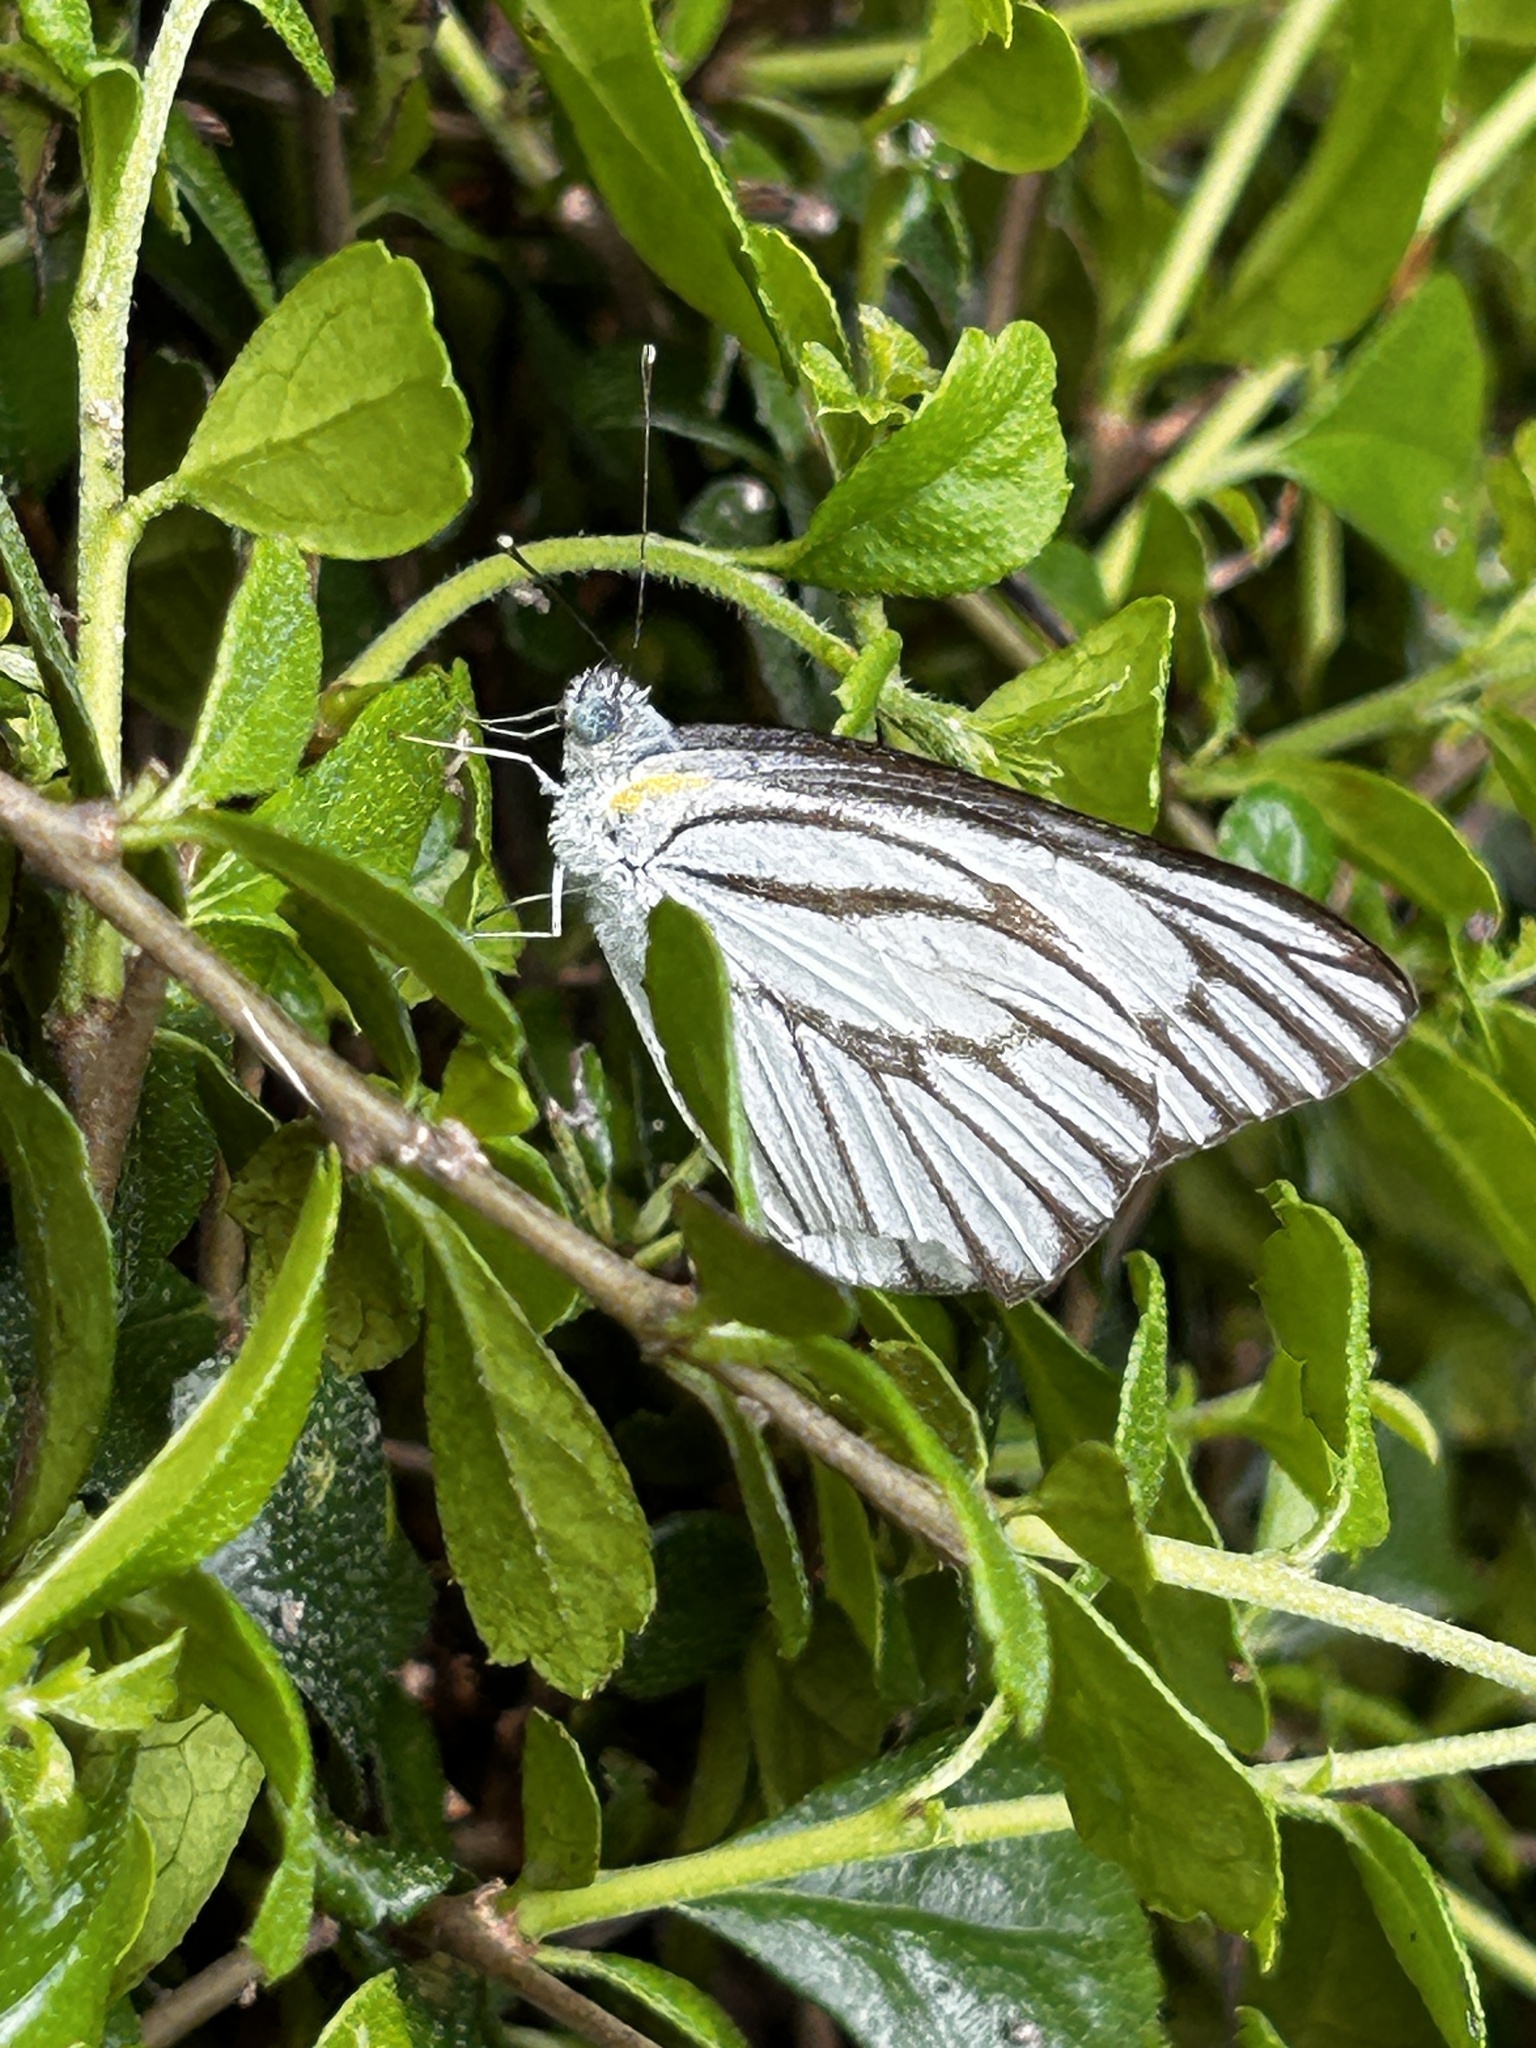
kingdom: Animalia
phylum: Arthropoda
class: Insecta
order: Lepidoptera
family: Pieridae
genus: Appias
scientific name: Appias libythea
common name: Striped albatross
